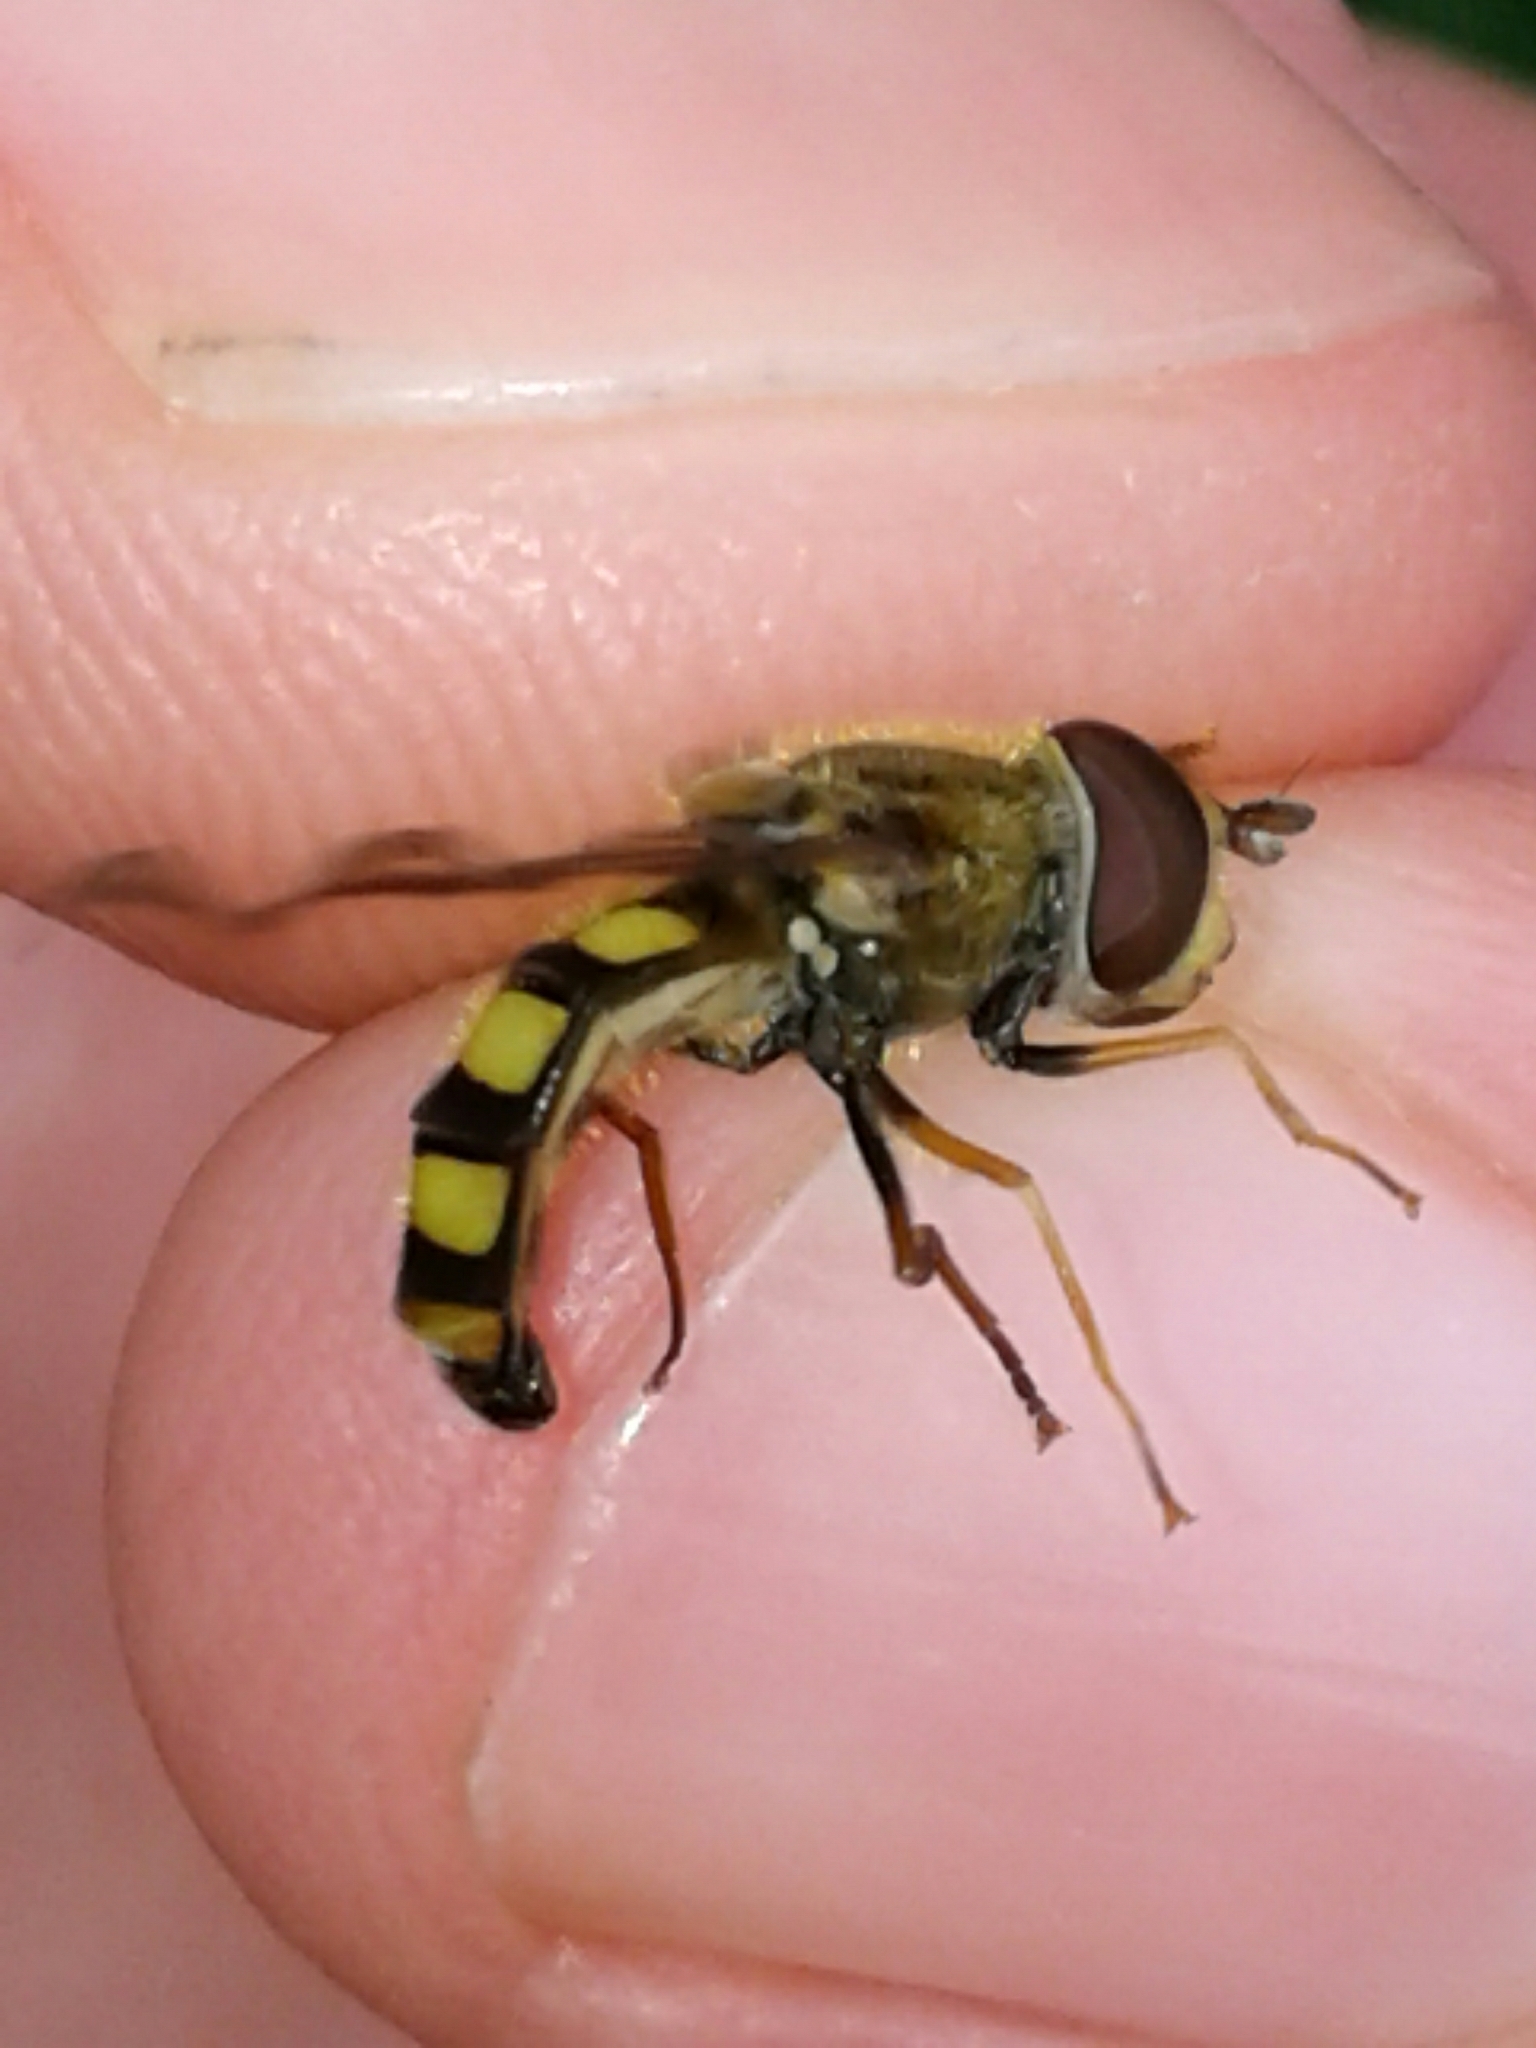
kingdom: Animalia
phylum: Arthropoda
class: Insecta
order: Diptera
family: Syrphidae
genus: Eupeodes
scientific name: Eupeodes
